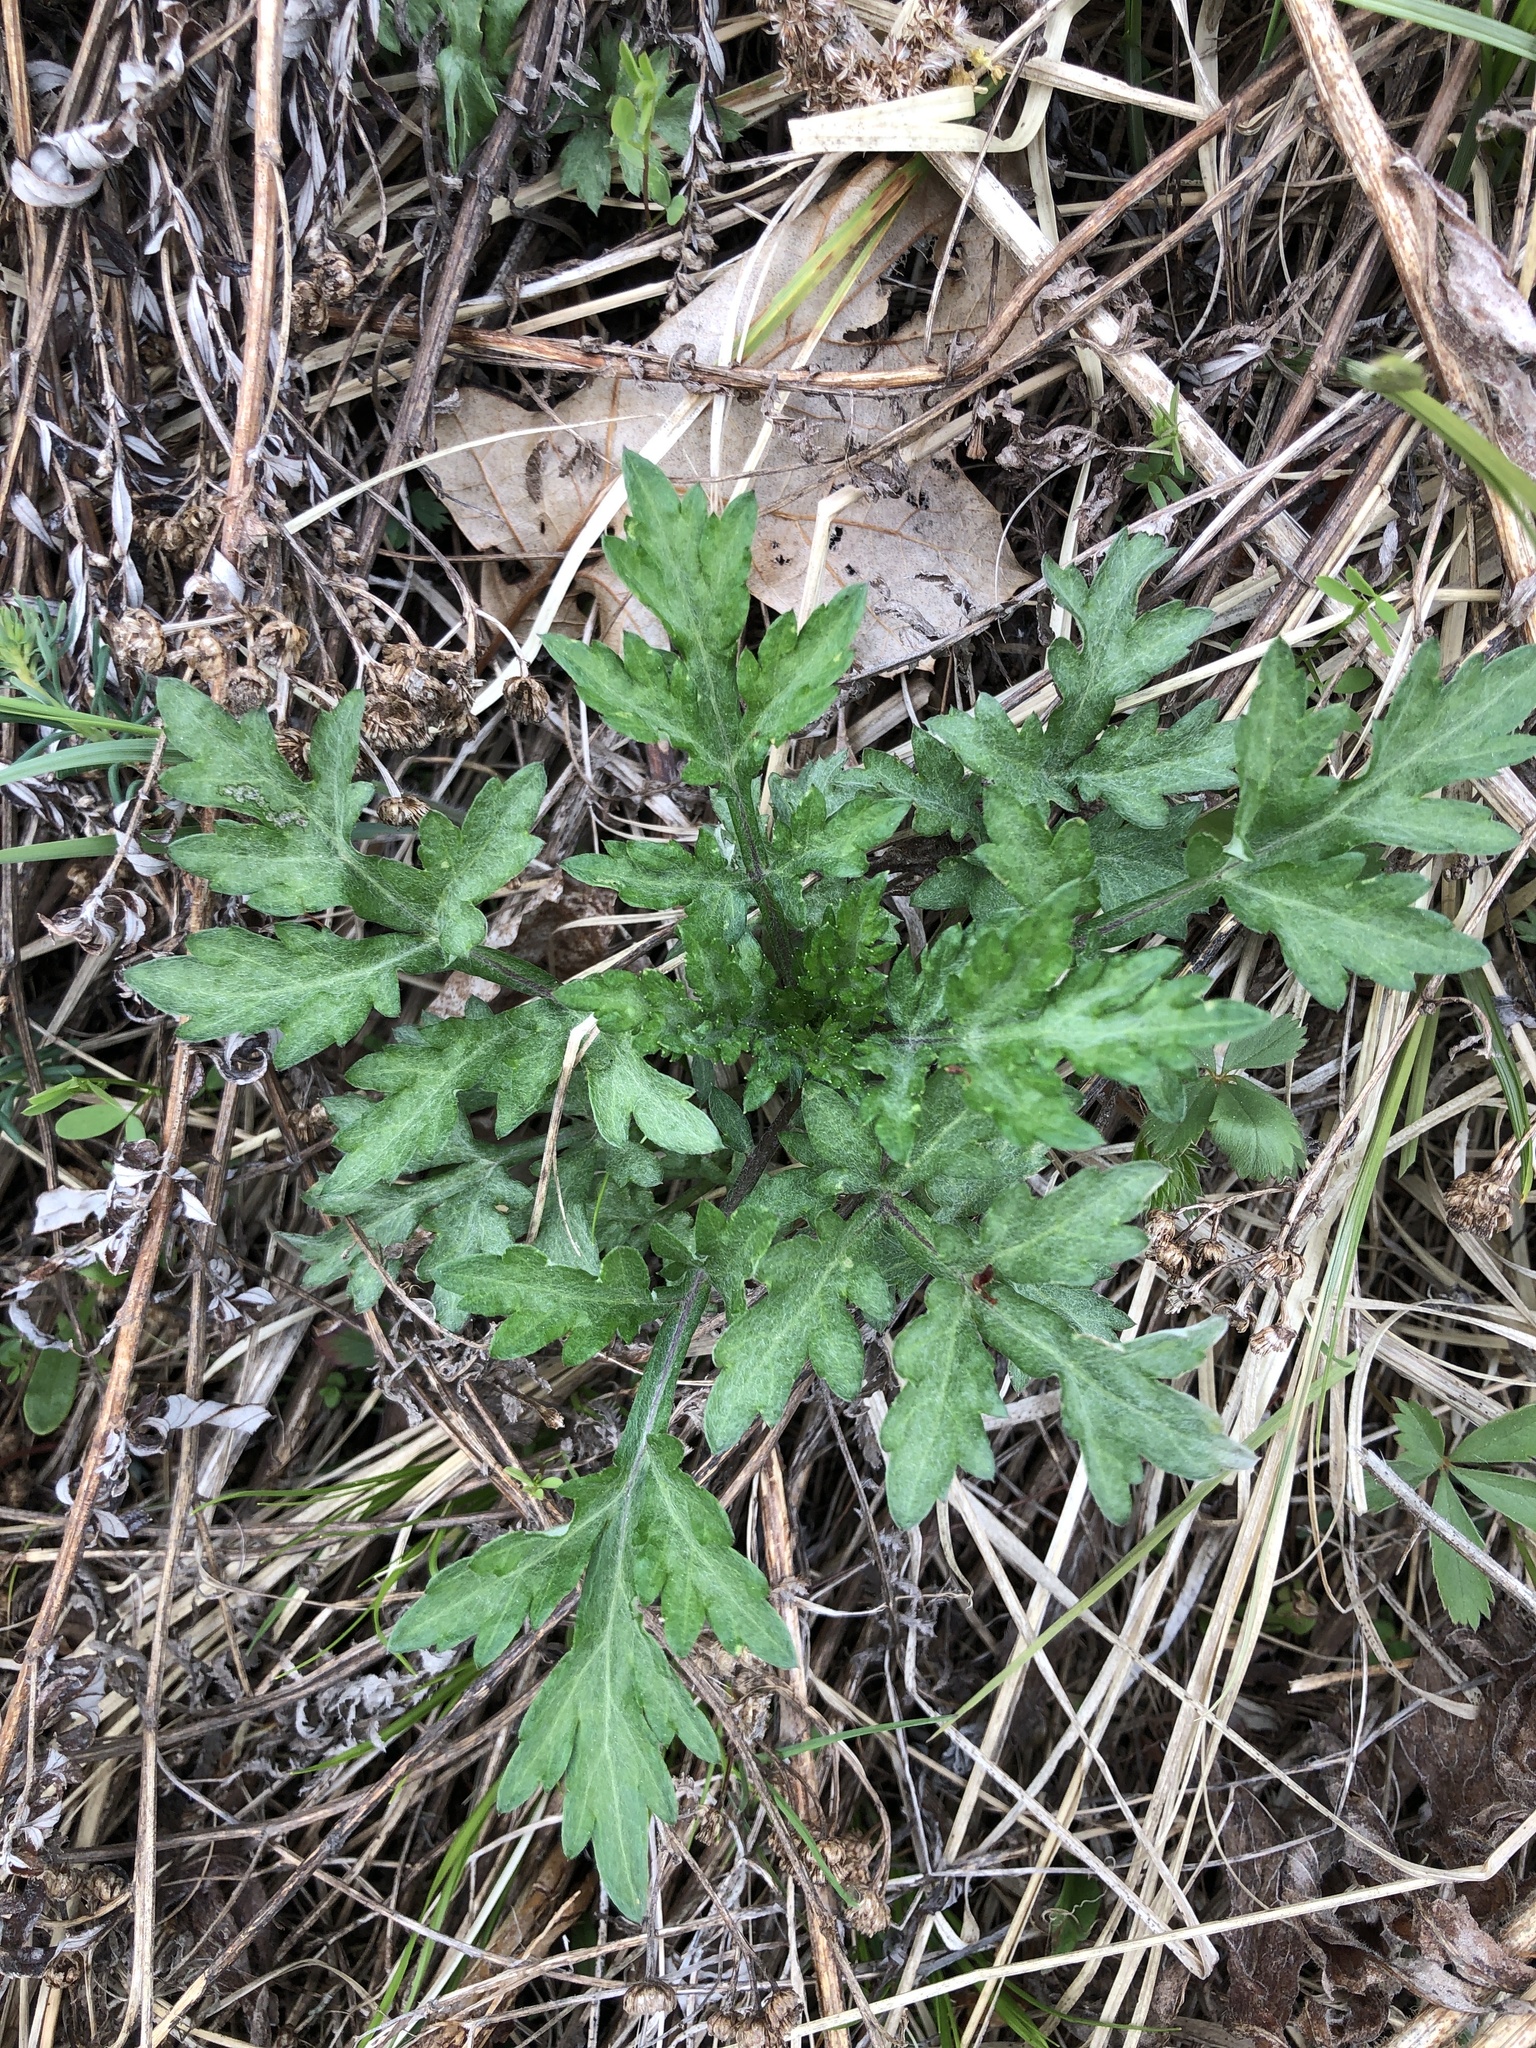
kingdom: Plantae
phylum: Tracheophyta
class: Magnoliopsida
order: Asterales
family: Asteraceae
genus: Artemisia
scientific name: Artemisia vulgaris
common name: Mugwort
